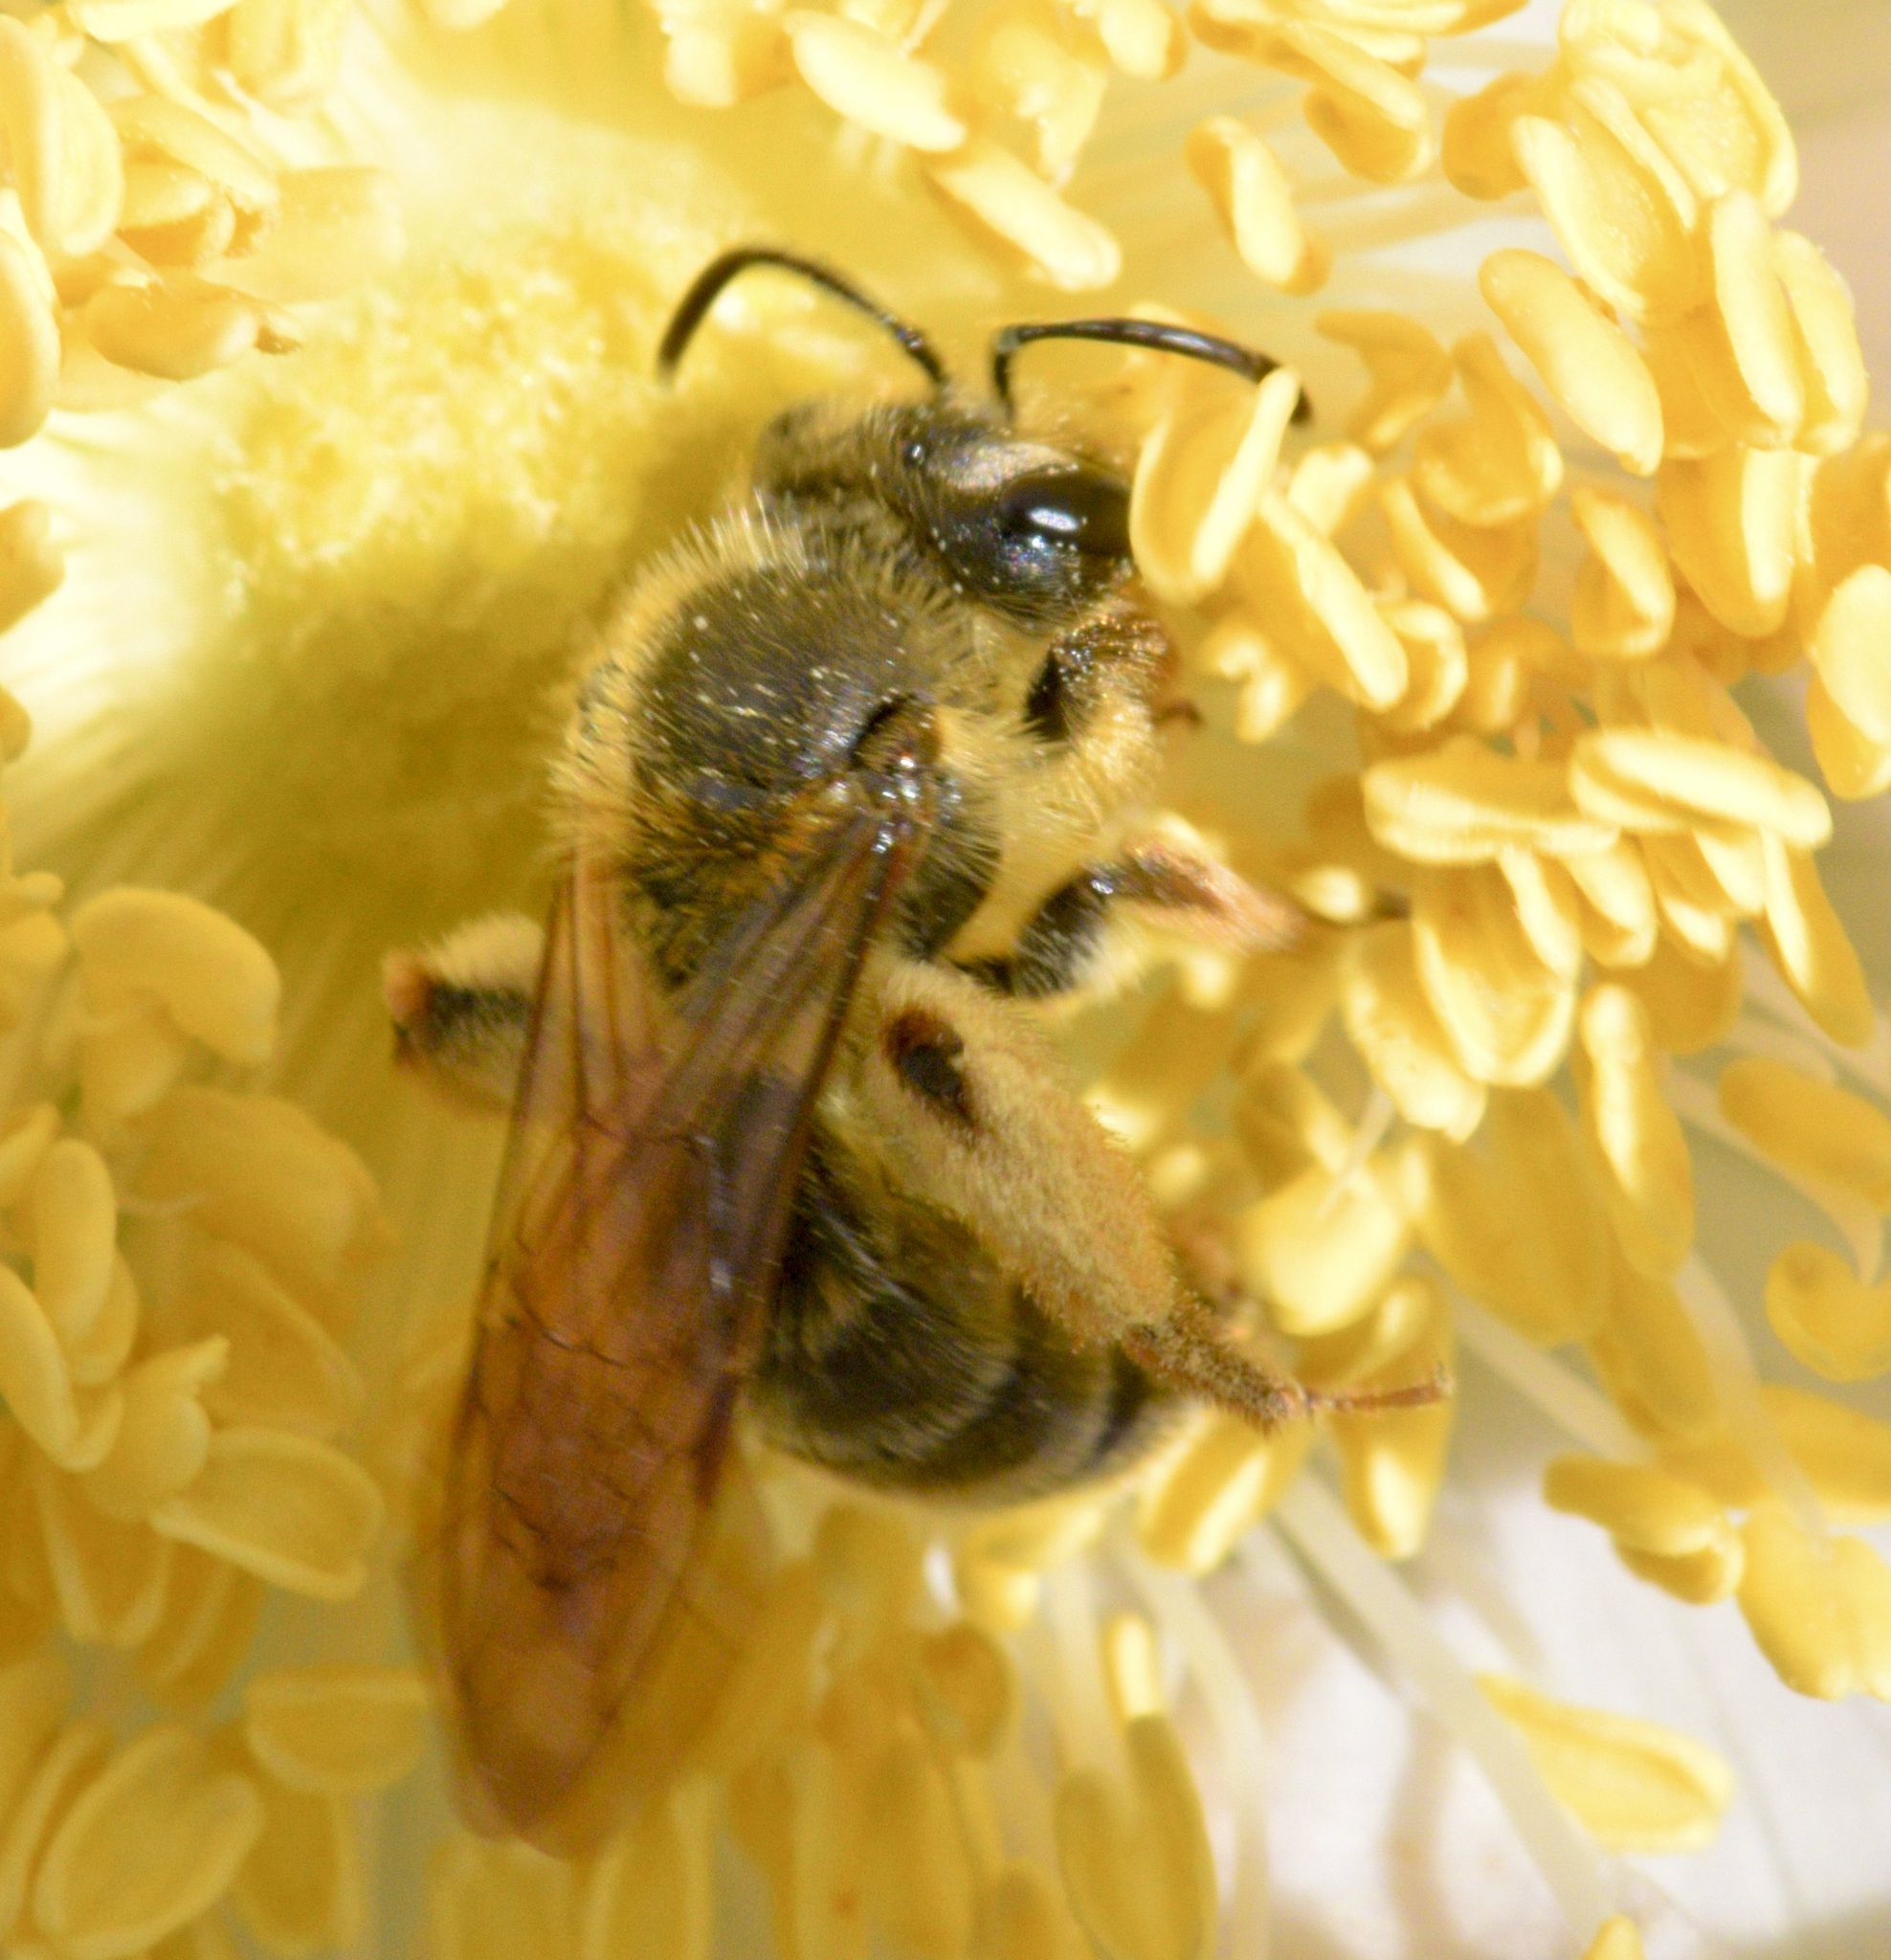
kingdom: Animalia
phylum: Arthropoda
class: Insecta
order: Hymenoptera
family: Andrenidae
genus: Andrena
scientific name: Andrena thaspii
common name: Parsnip miner bee
